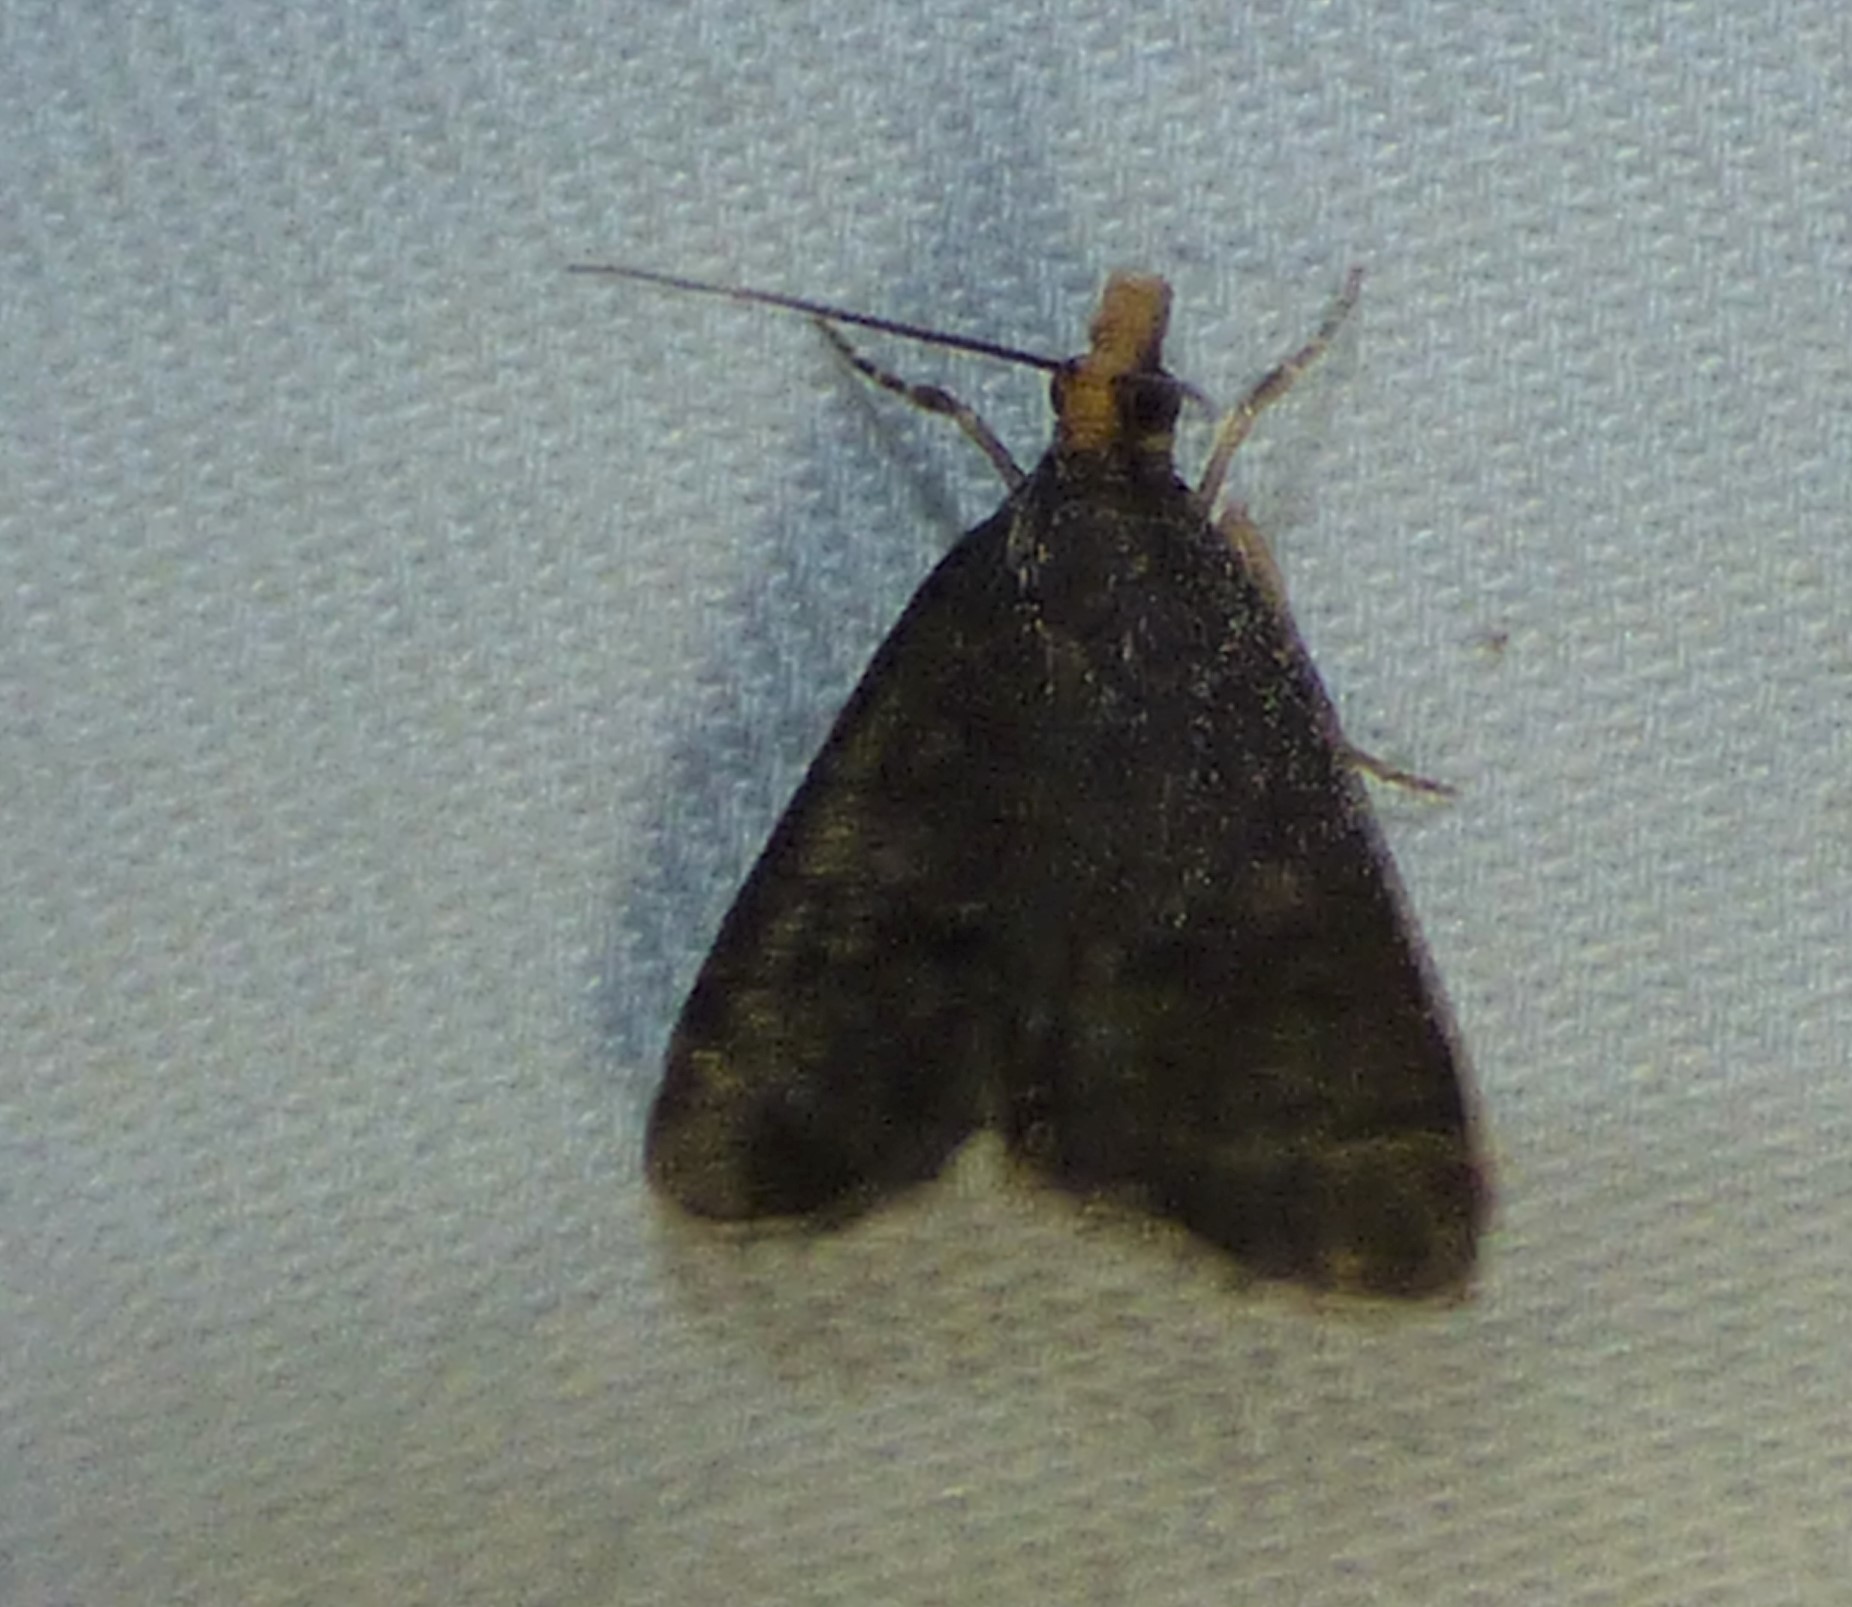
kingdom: Animalia
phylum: Arthropoda
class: Insecta
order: Lepidoptera
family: Crambidae
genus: Pyrausta
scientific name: Pyrausta merrickalis
